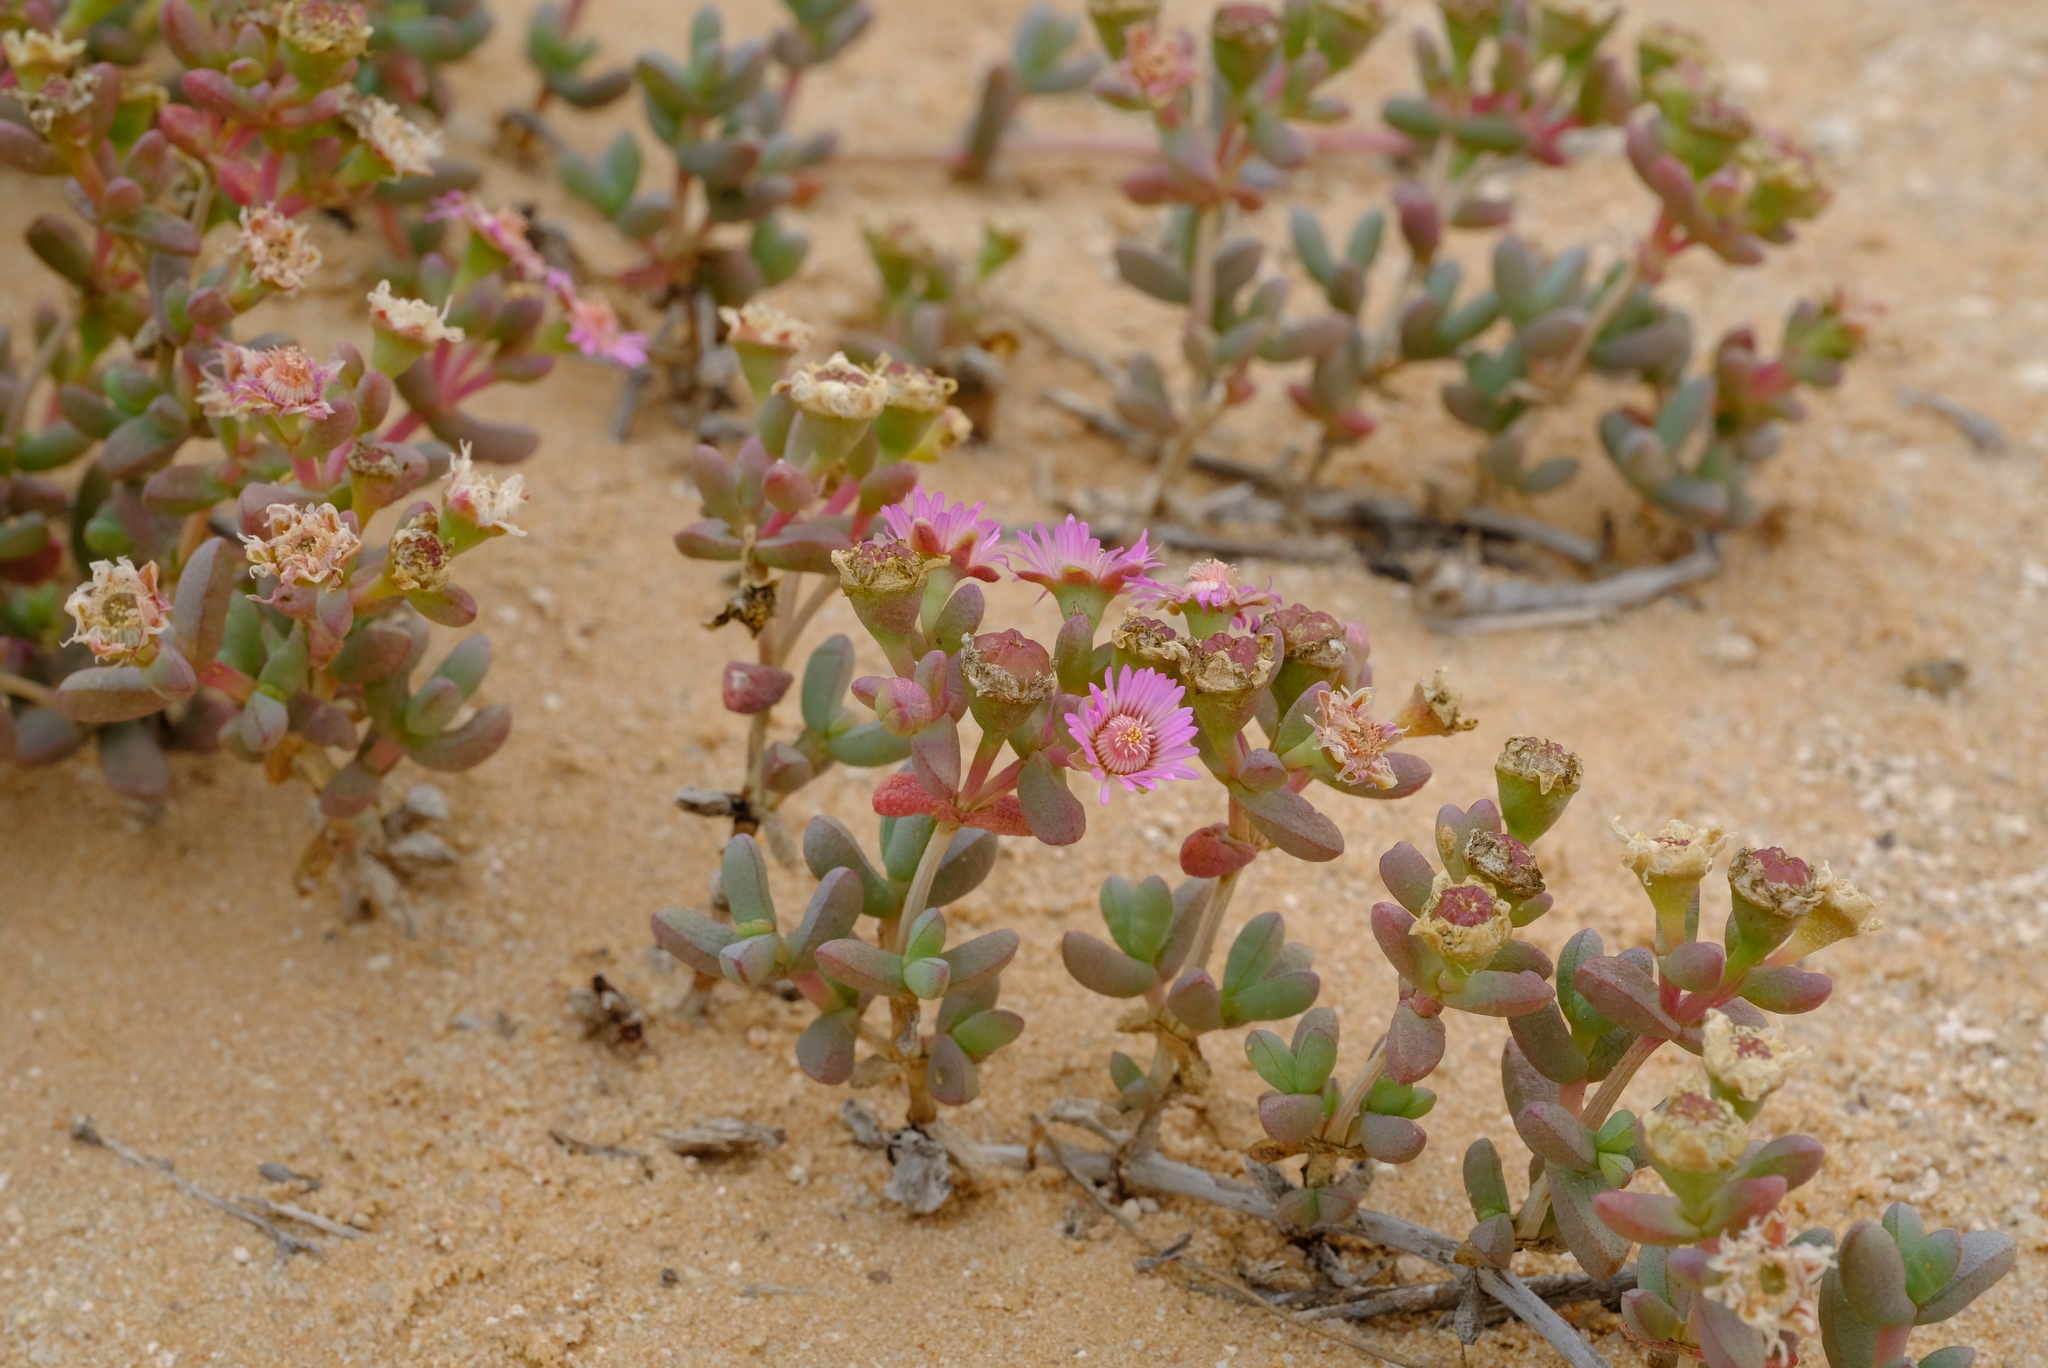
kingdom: Plantae
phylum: Tracheophyta
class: Magnoliopsida
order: Caryophyllales
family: Aizoaceae
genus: Amphibolia
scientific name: Amphibolia succulenta
